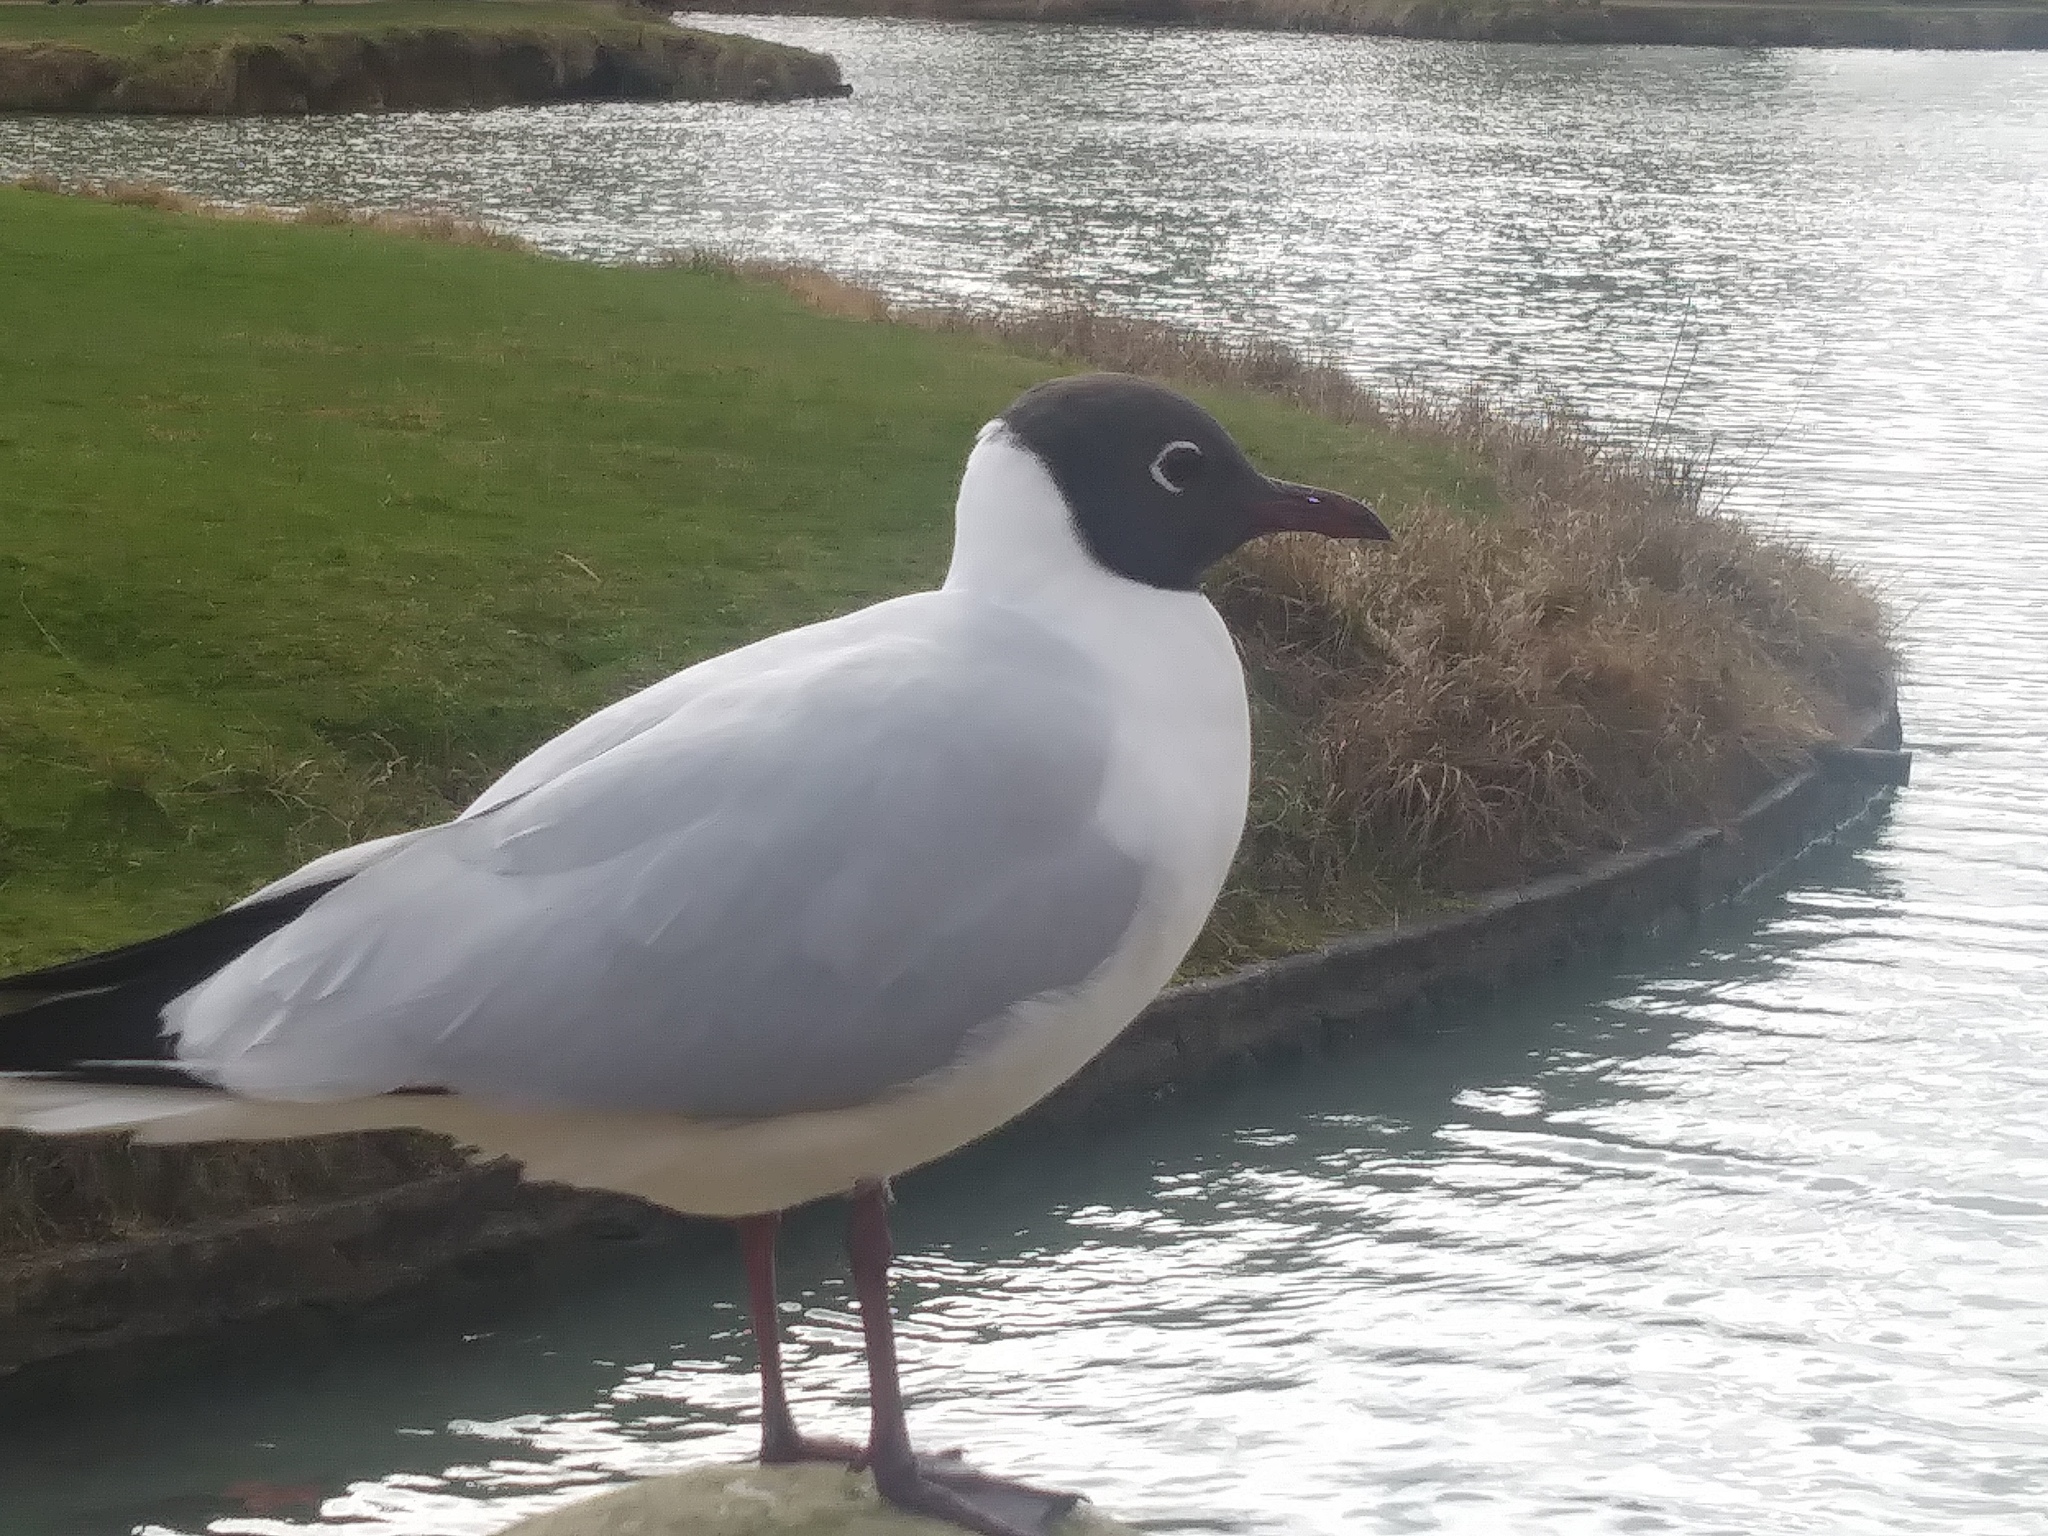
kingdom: Animalia
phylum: Chordata
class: Aves
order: Charadriiformes
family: Laridae
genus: Chroicocephalus
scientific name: Chroicocephalus ridibundus
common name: Black-headed gull
